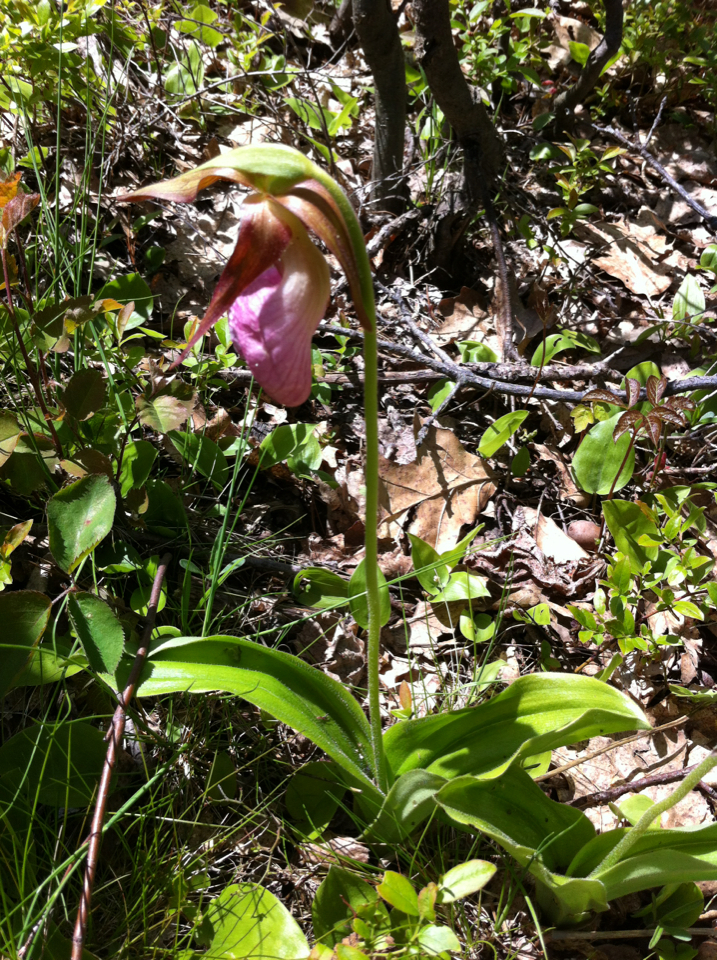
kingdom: Plantae
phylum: Tracheophyta
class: Liliopsida
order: Asparagales
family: Orchidaceae
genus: Cypripedium
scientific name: Cypripedium acaule
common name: Pink lady's-slipper
